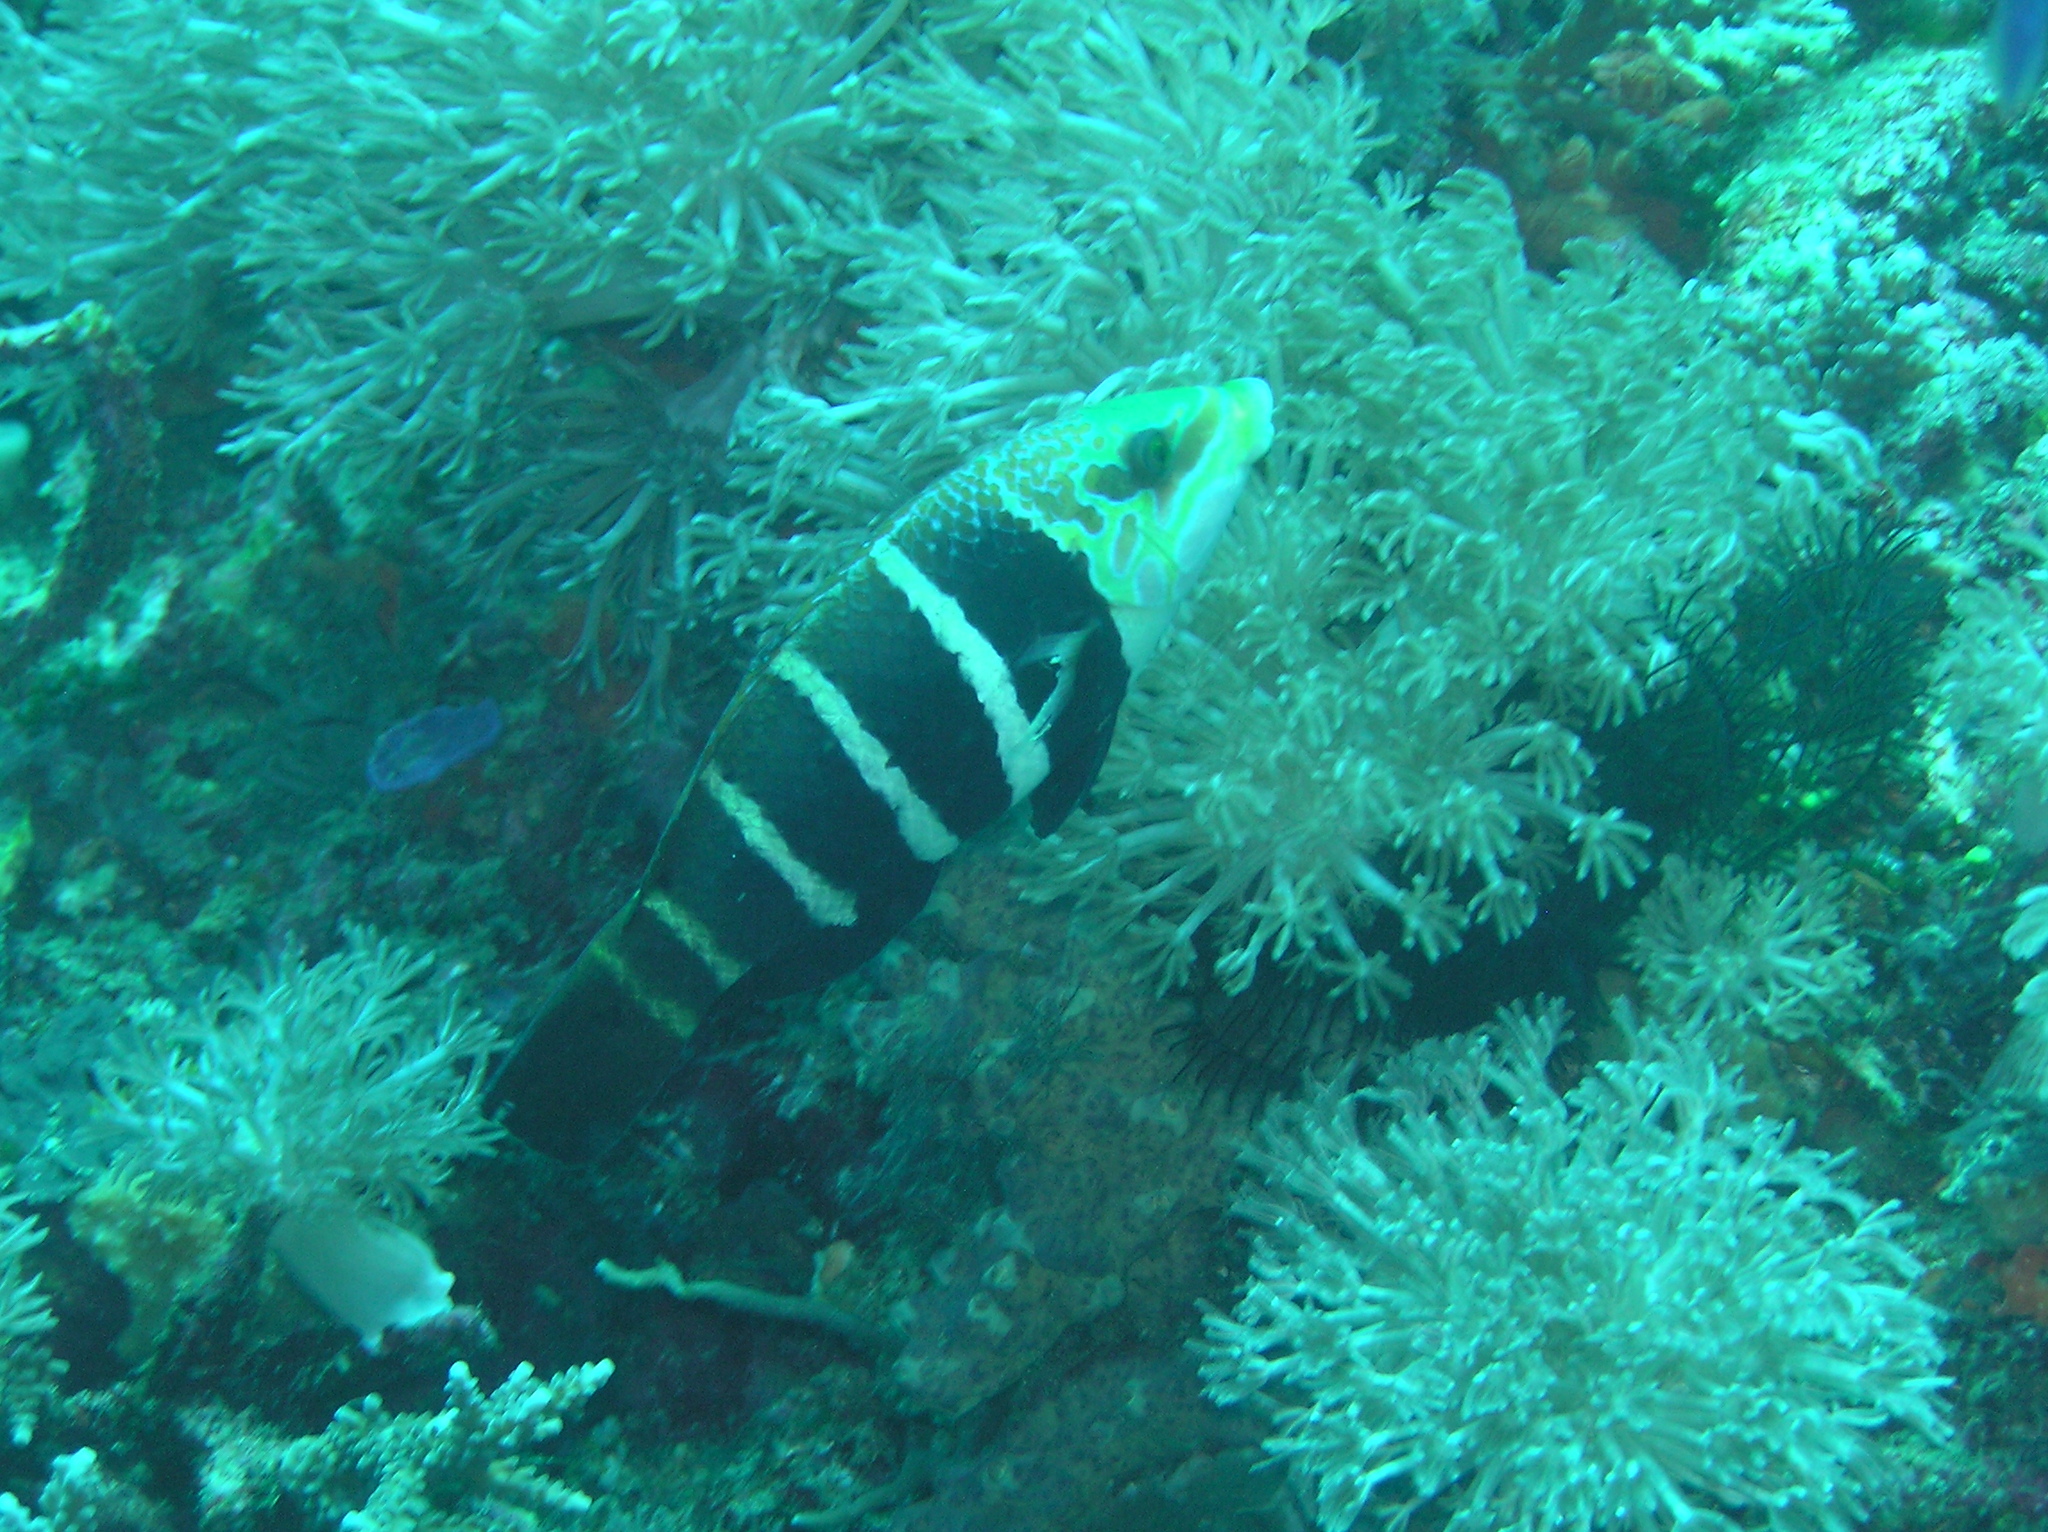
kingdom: Animalia
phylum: Chordata
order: Perciformes
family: Labridae
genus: Hemigymnus
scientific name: Hemigymnus fasciatus
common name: Barred thicklip
